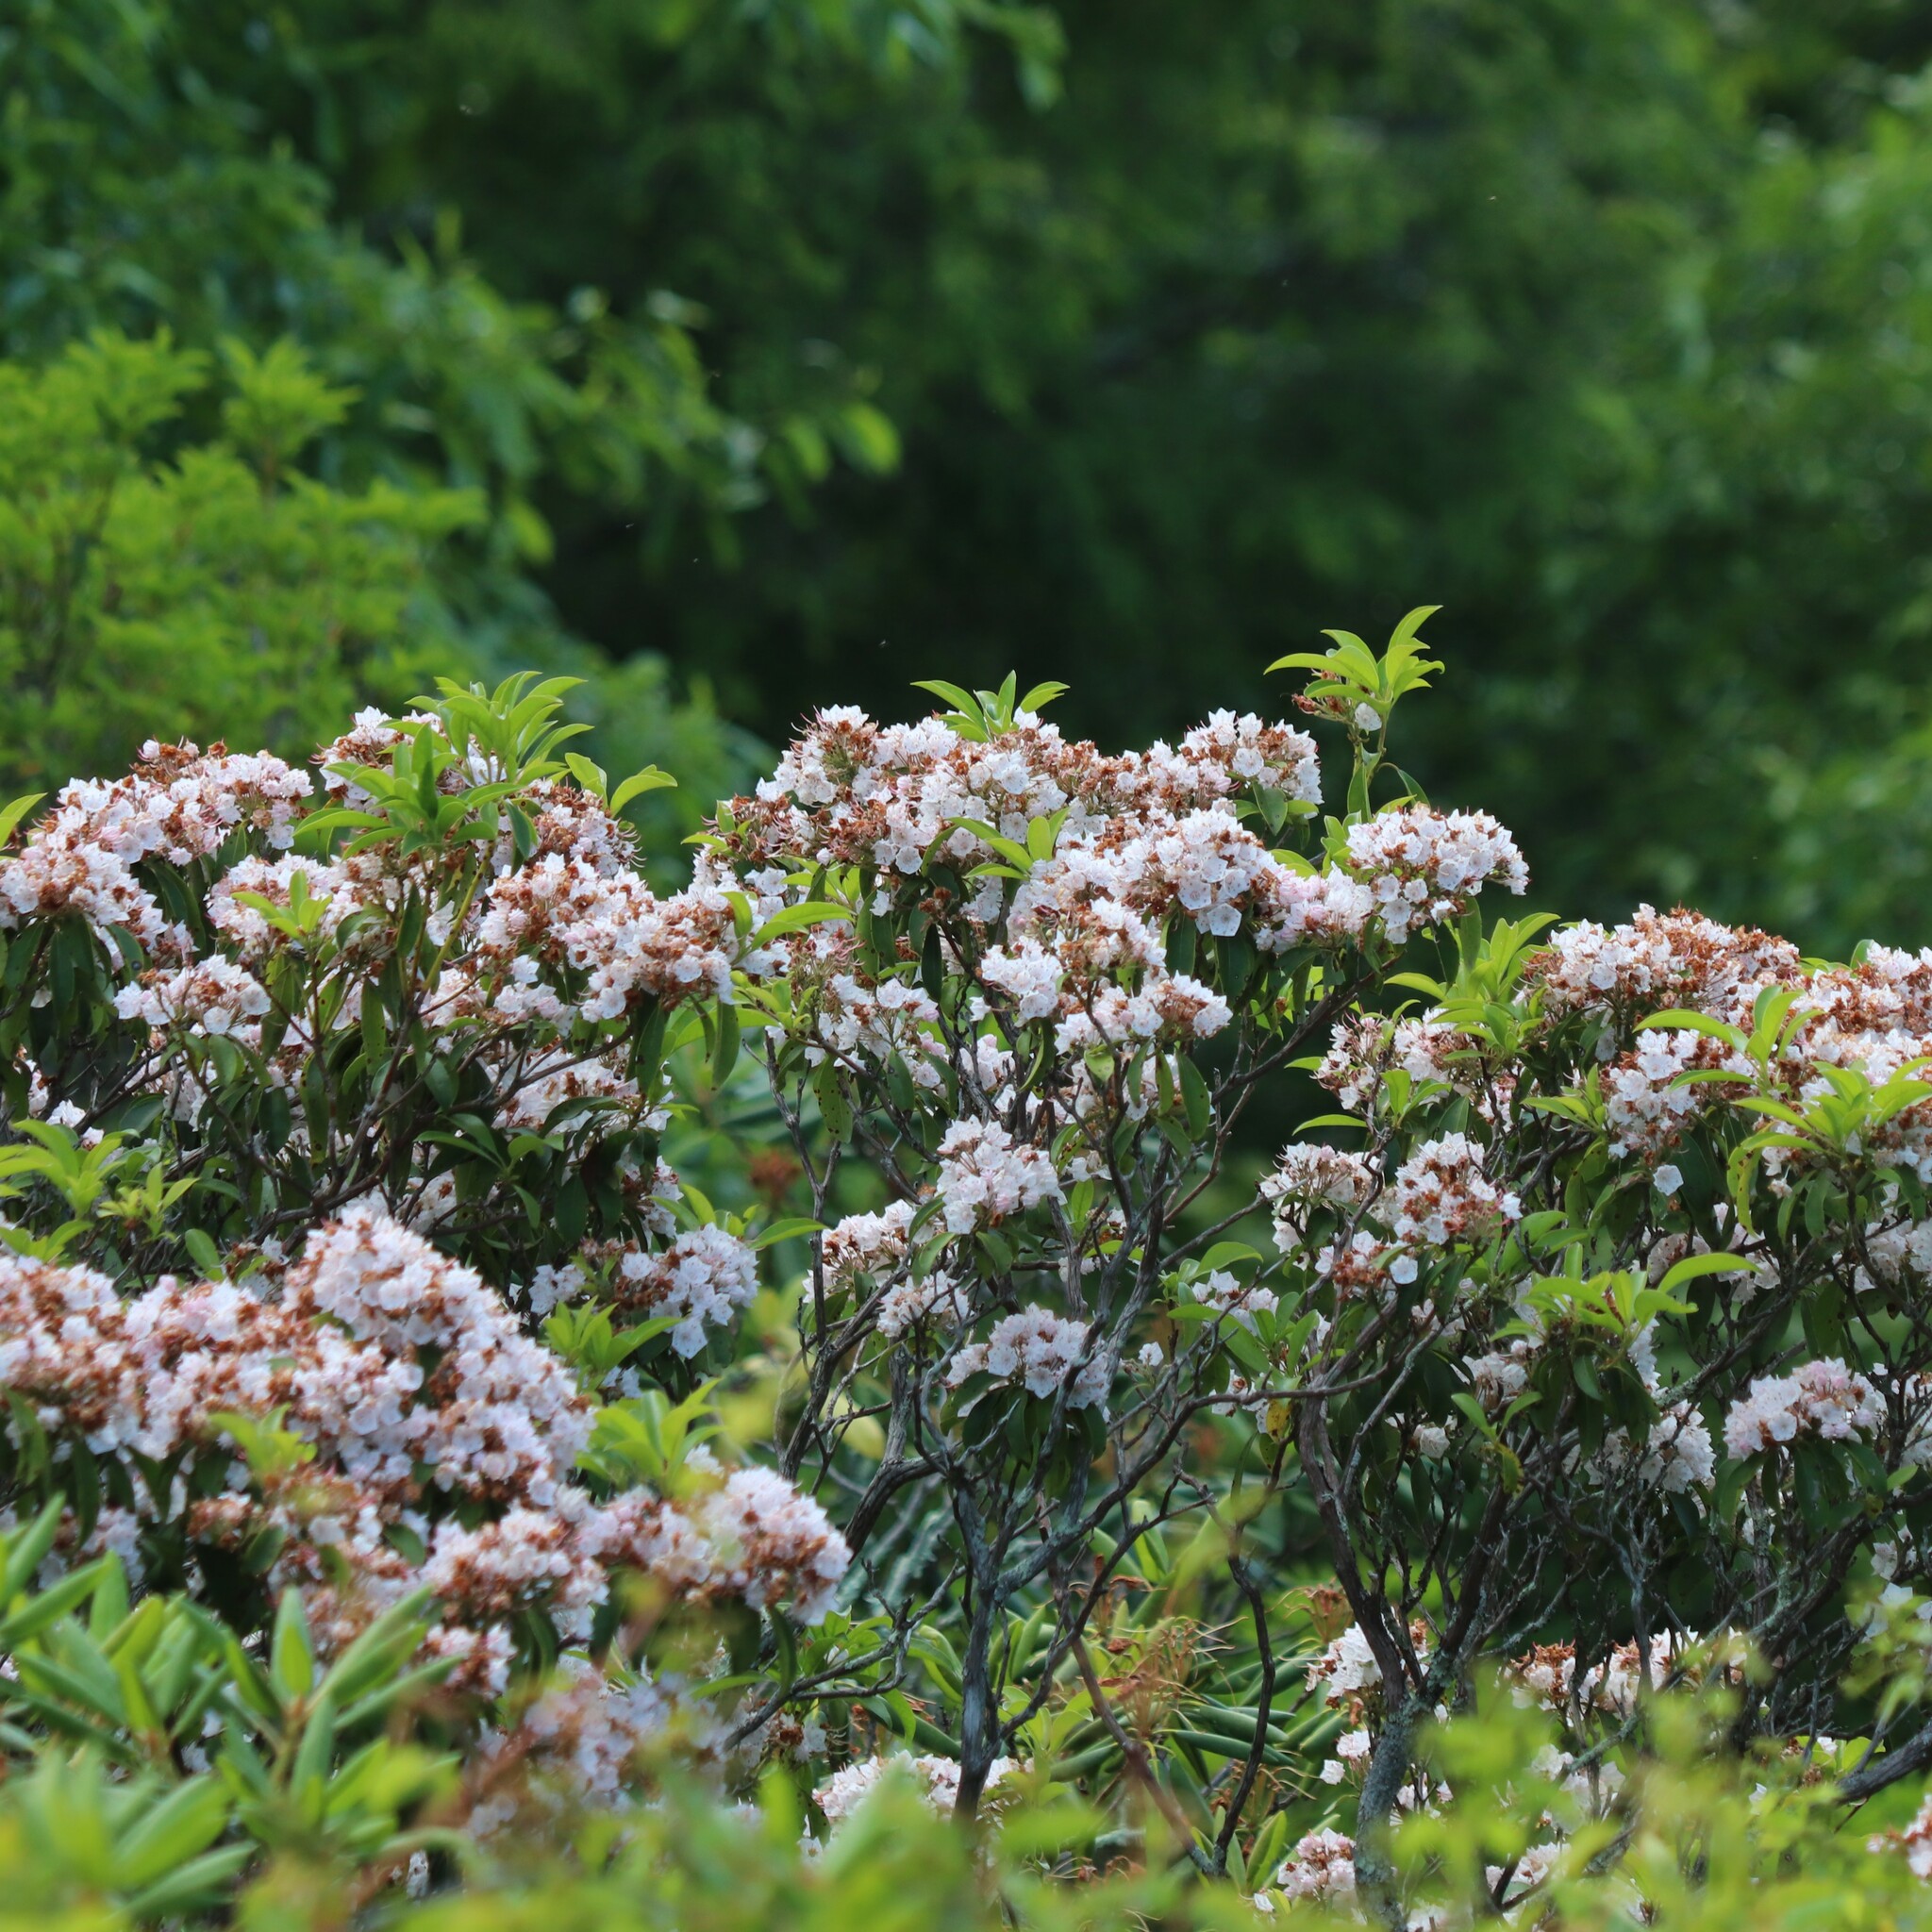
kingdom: Plantae
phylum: Tracheophyta
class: Magnoliopsida
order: Ericales
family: Ericaceae
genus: Kalmia
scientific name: Kalmia latifolia
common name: Mountain-laurel
